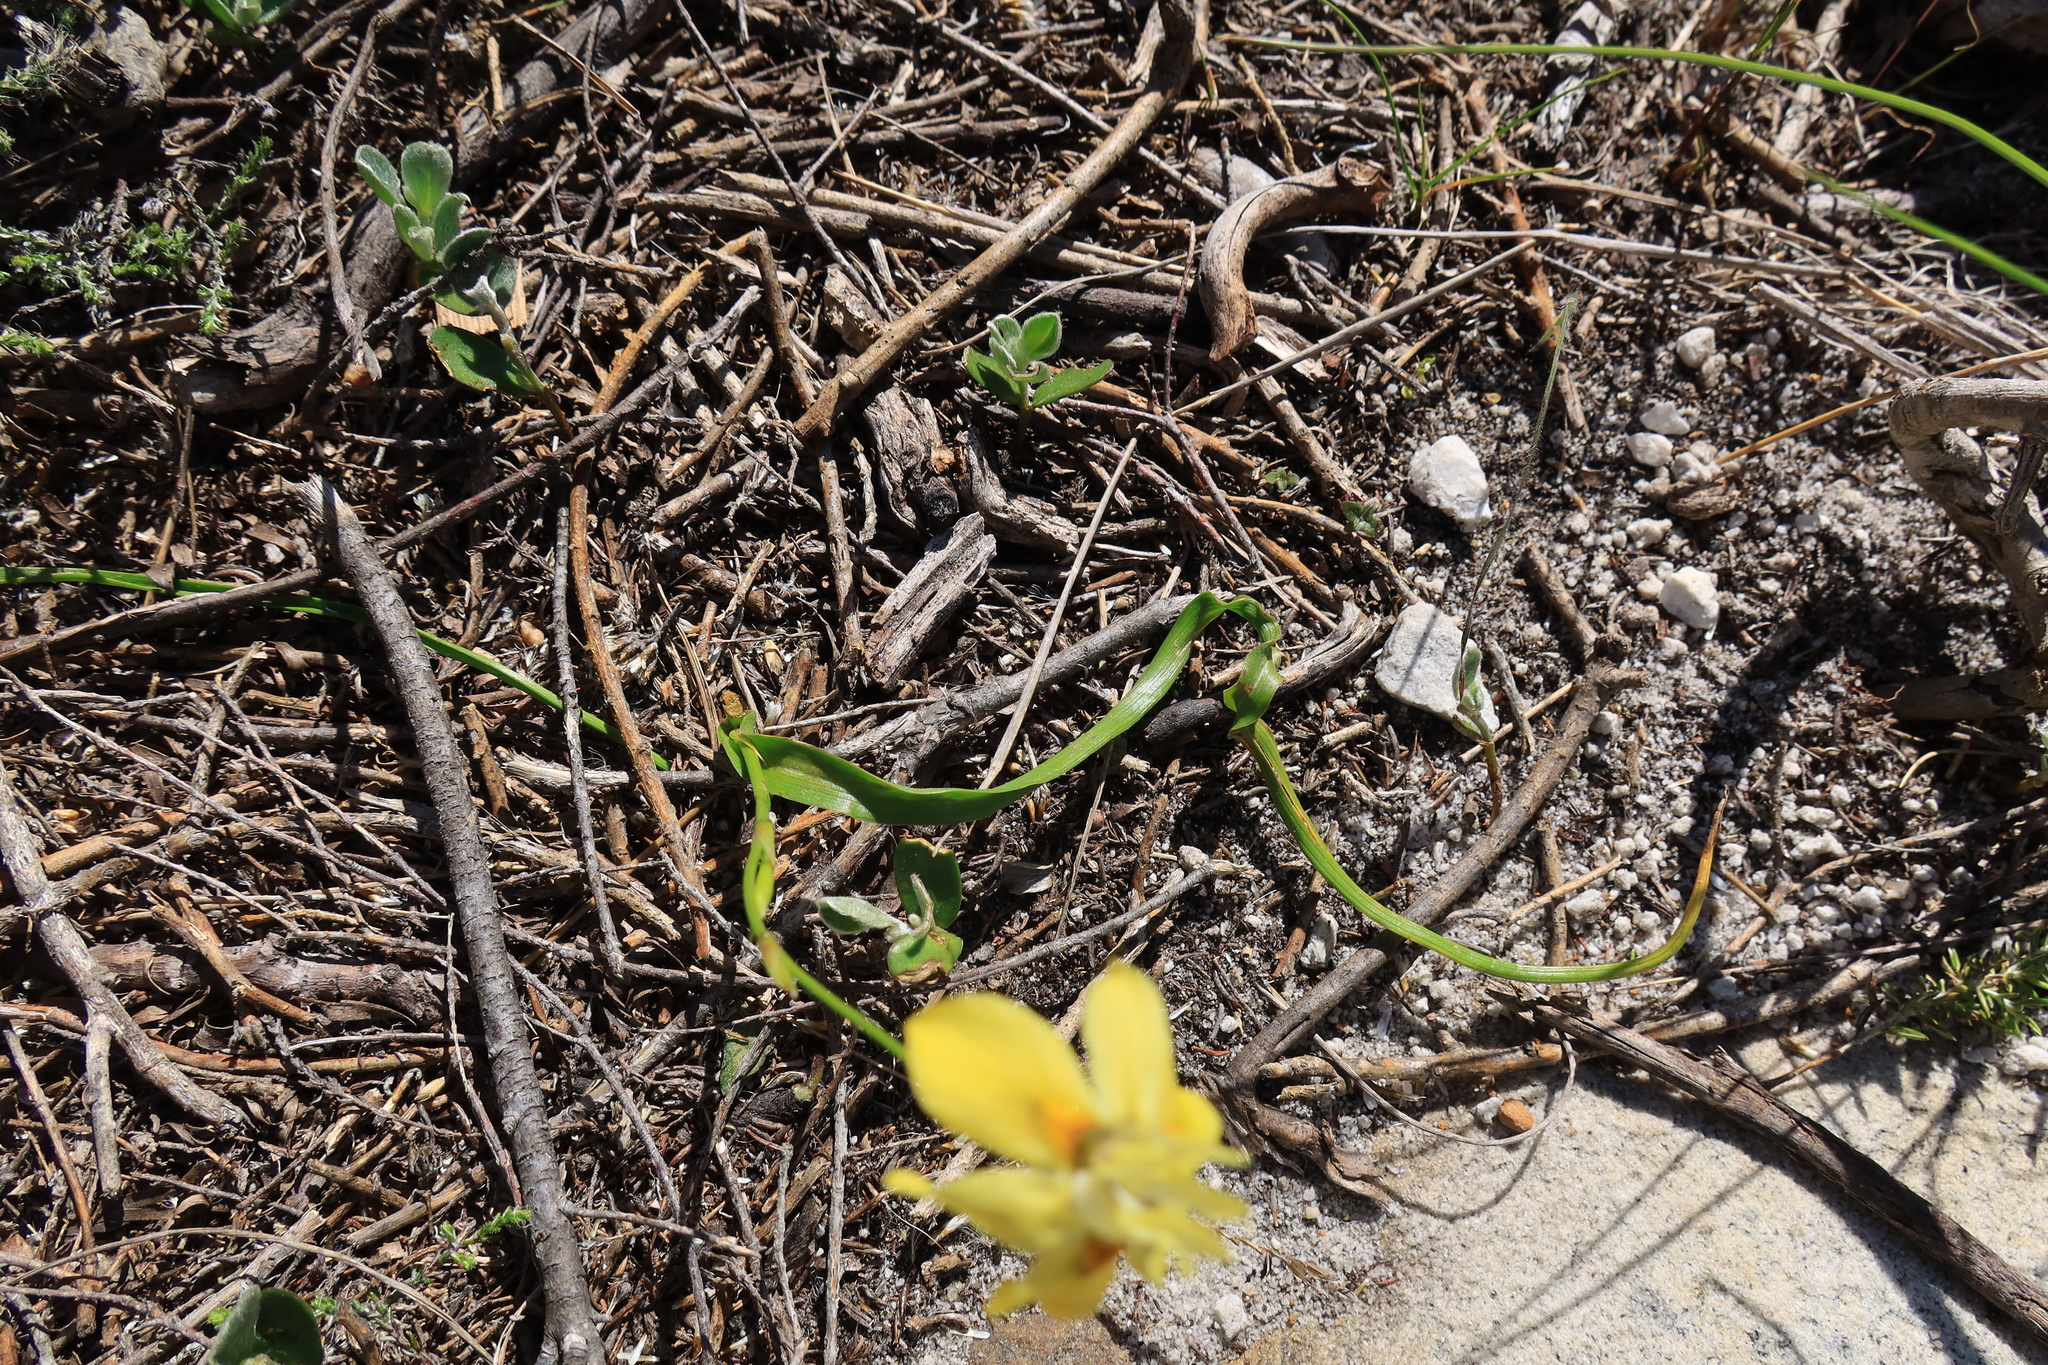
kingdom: Plantae
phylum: Tracheophyta
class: Liliopsida
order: Asparagales
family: Iridaceae
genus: Moraea
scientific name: Moraea gawleri
